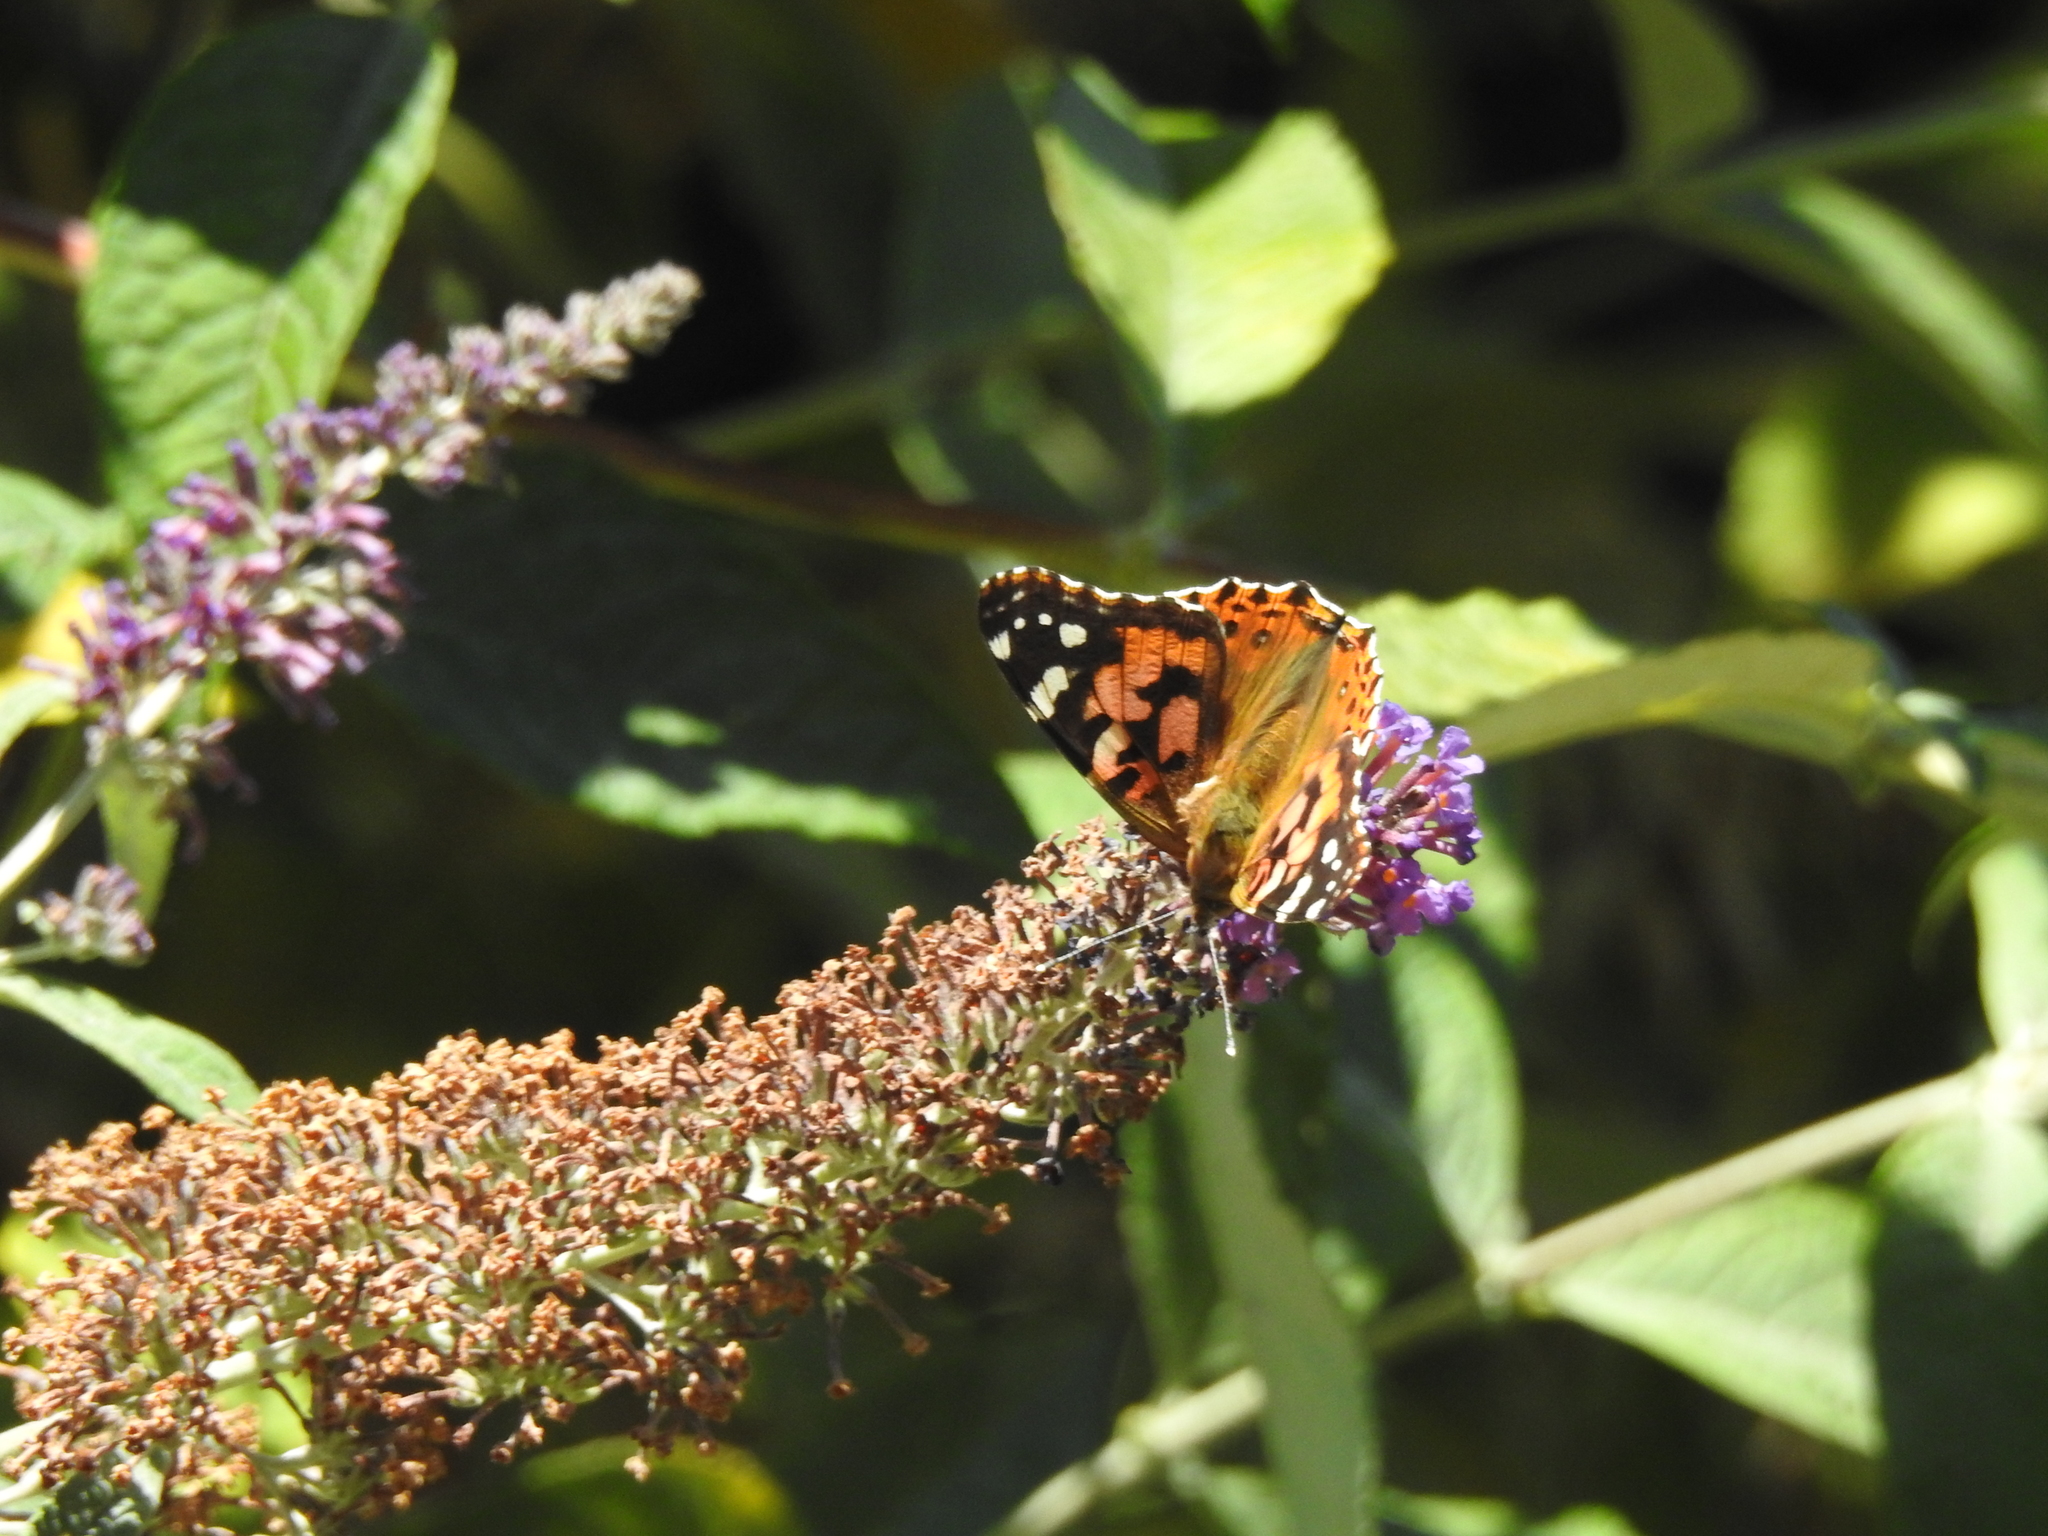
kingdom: Animalia
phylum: Arthropoda
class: Insecta
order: Lepidoptera
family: Nymphalidae
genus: Vanessa
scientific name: Vanessa cardui
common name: Painted lady
